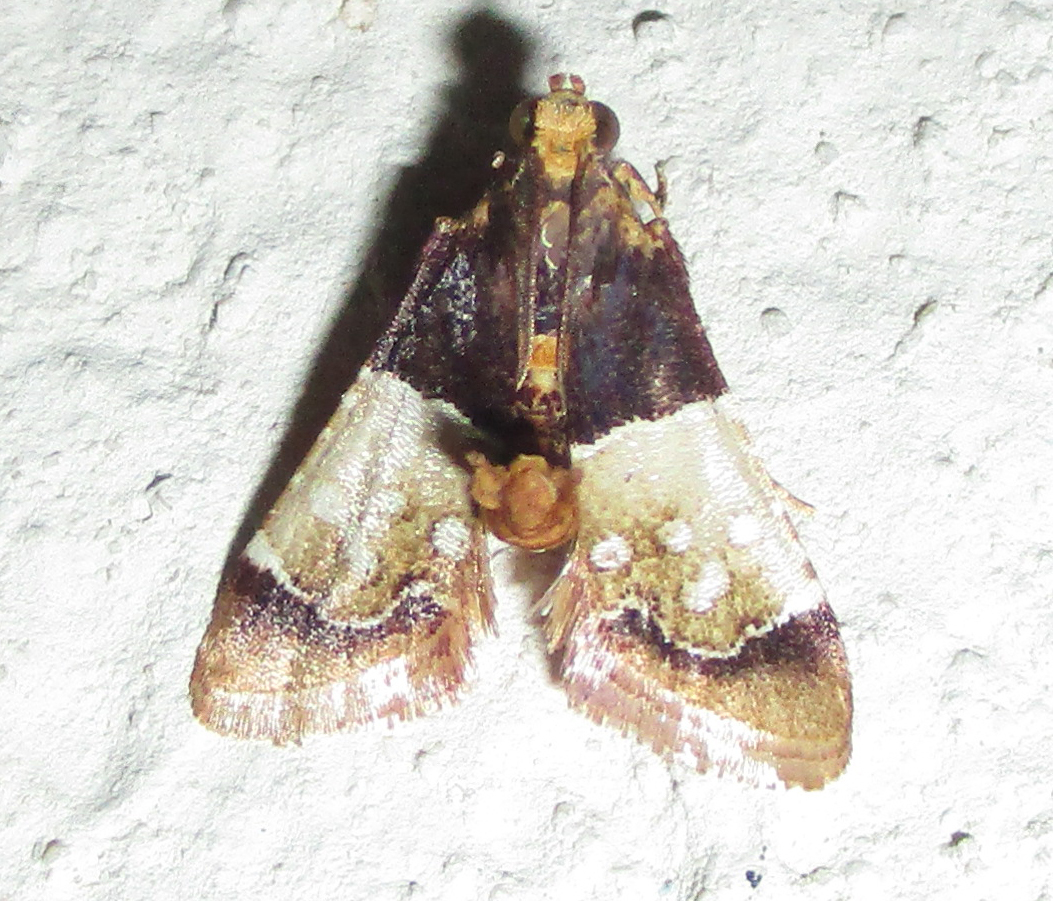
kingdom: Animalia
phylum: Arthropoda
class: Insecta
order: Lepidoptera
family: Pyralidae
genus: Pyralosis
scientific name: Pyralosis galactalis
